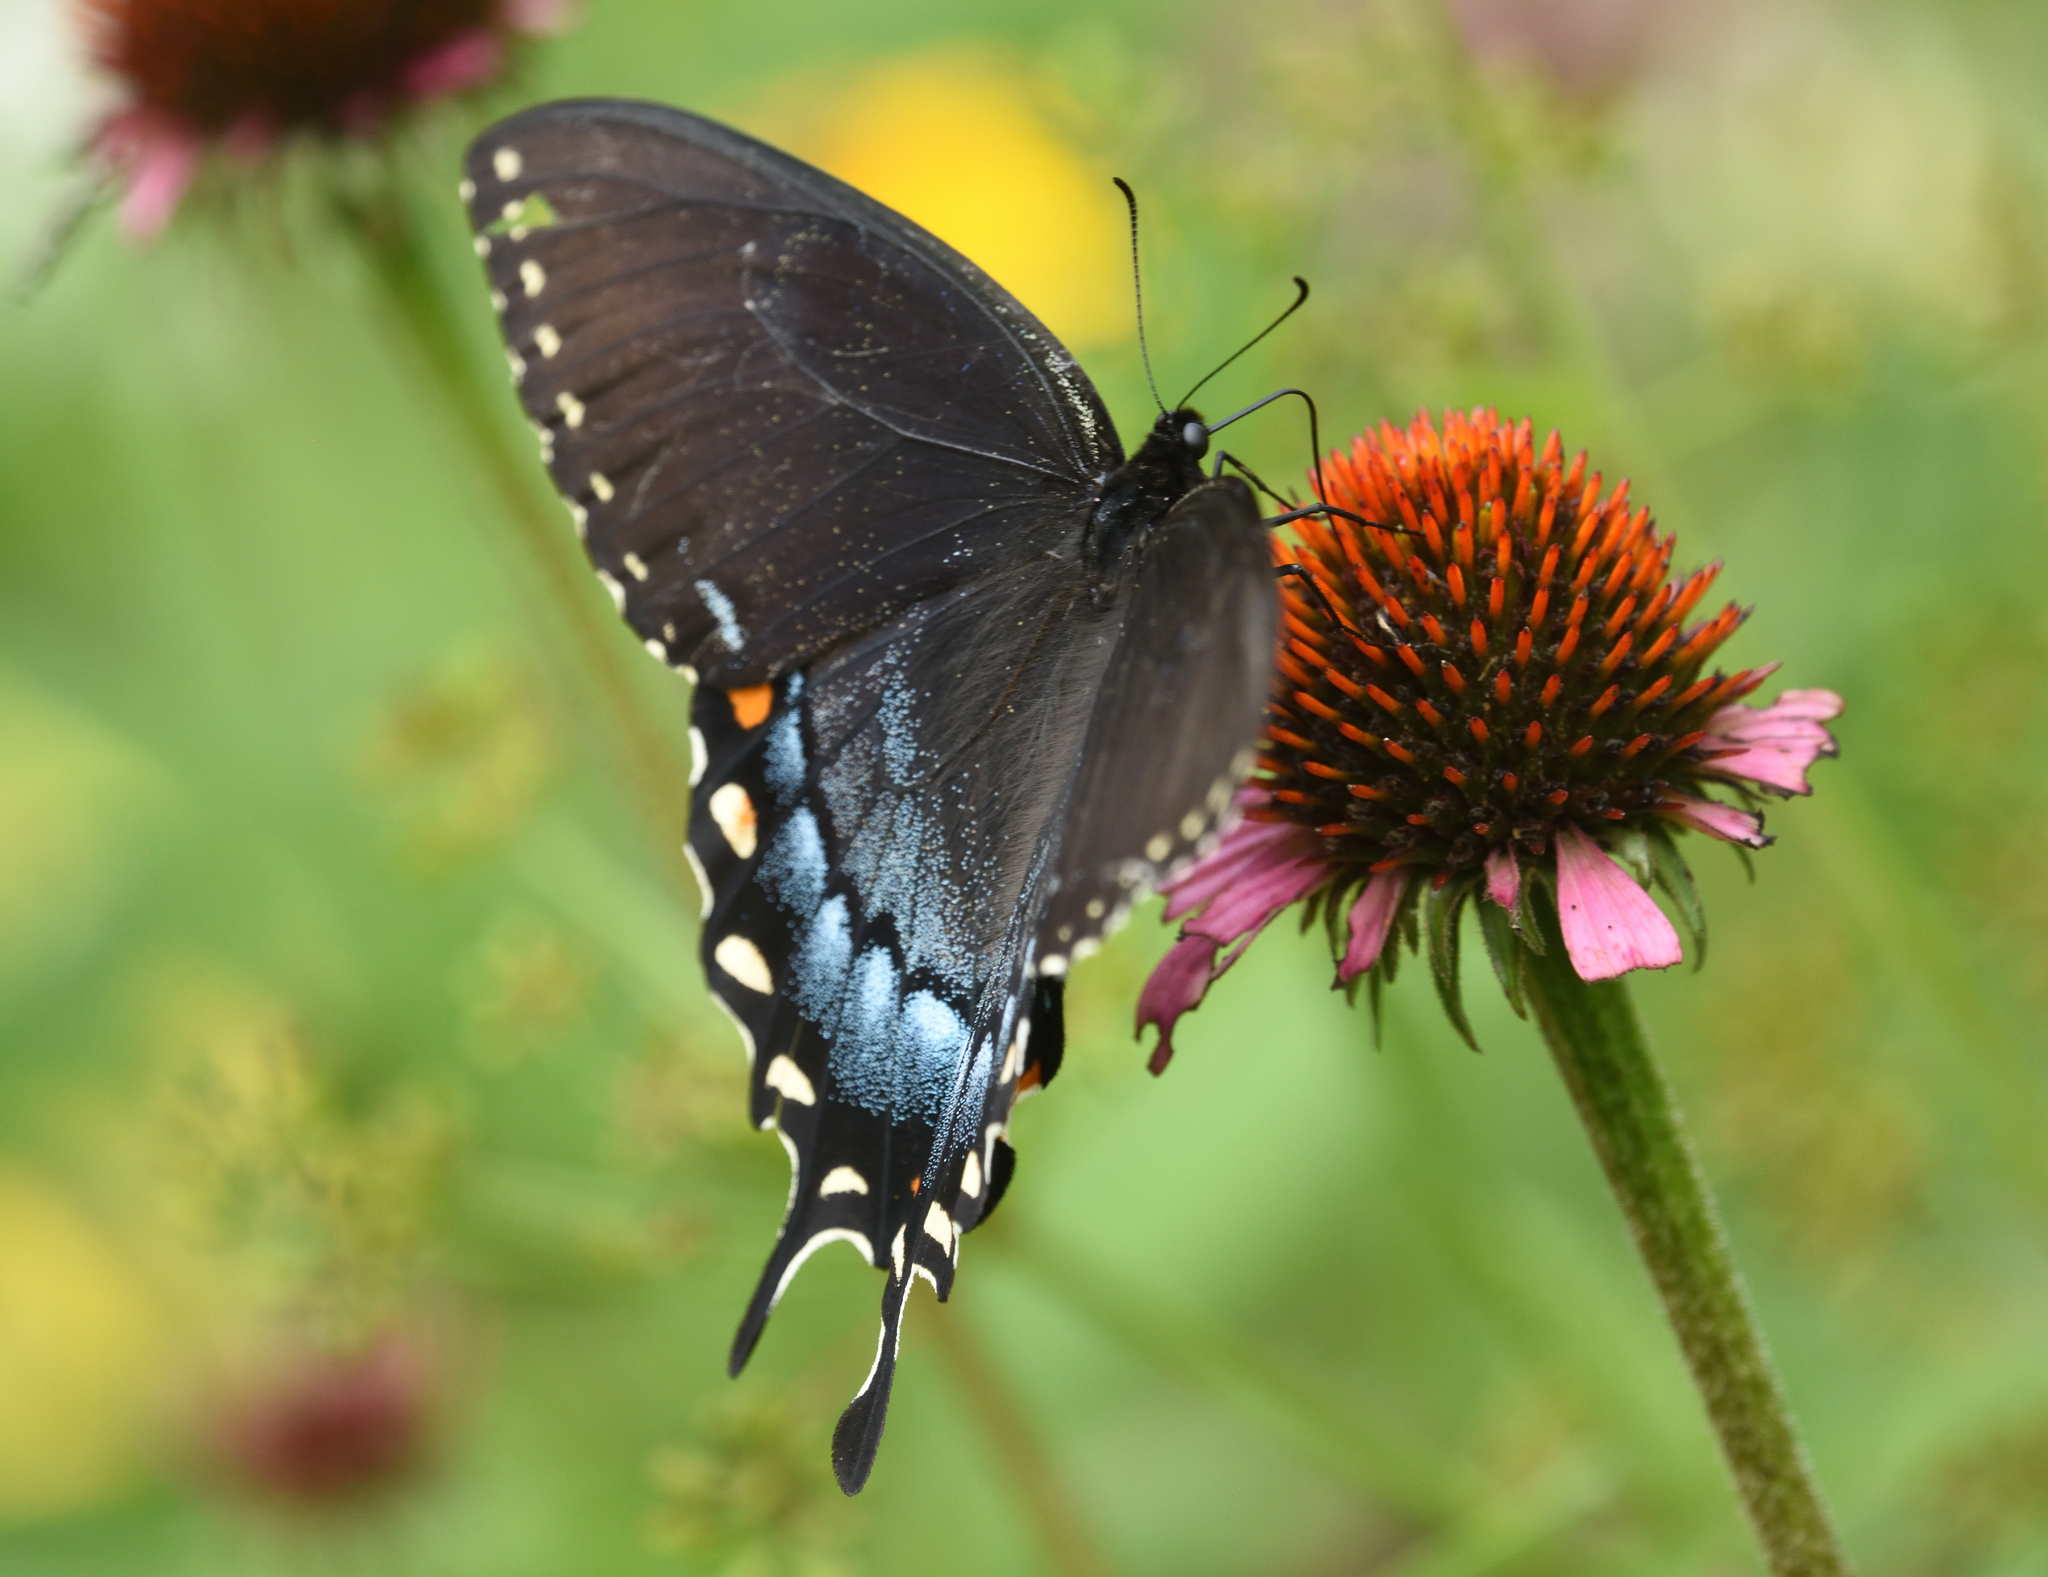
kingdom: Animalia
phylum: Arthropoda
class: Insecta
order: Lepidoptera
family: Papilionidae
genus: Papilio
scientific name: Papilio glaucus
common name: Tiger swallowtail
